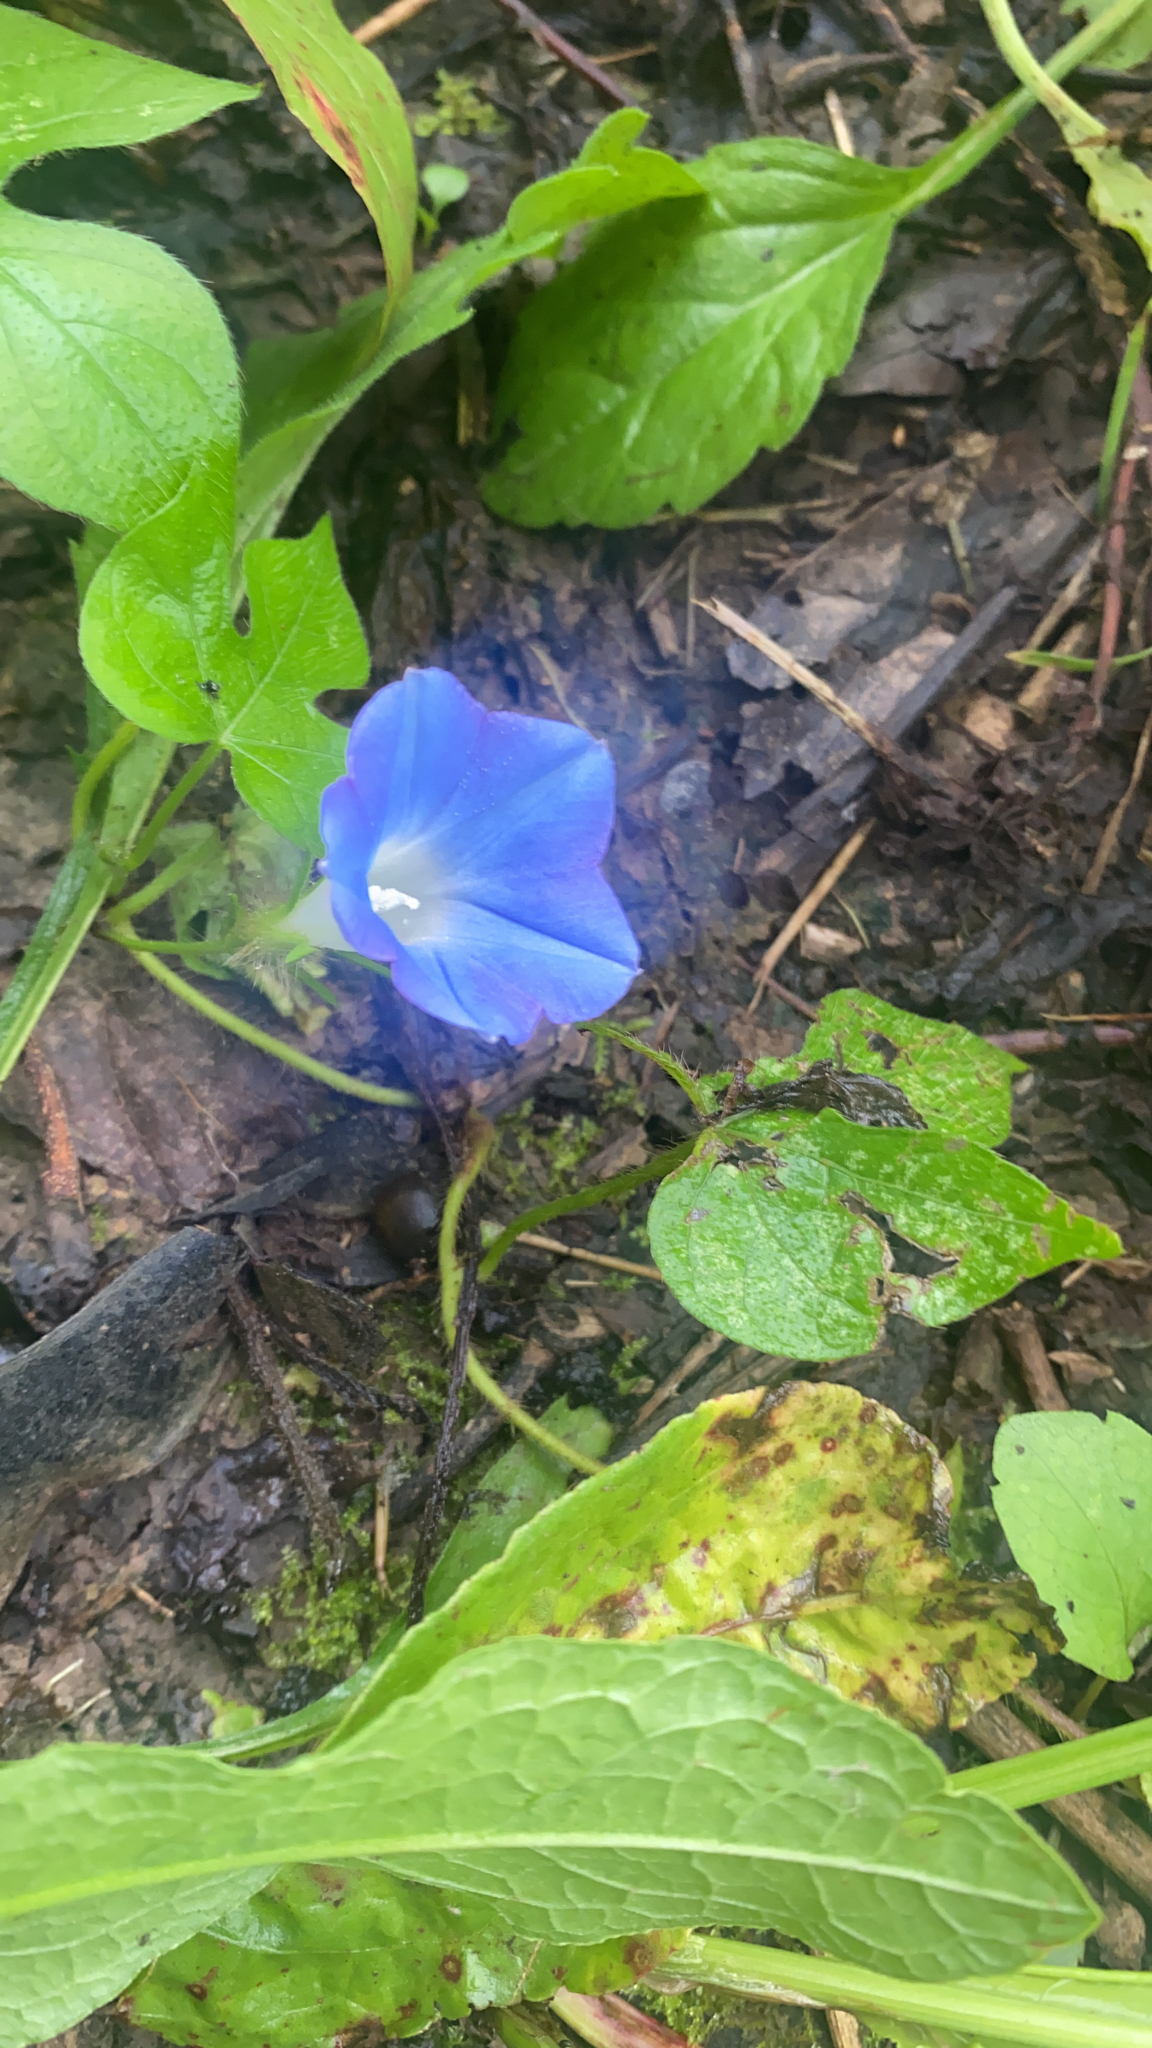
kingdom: Plantae
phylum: Tracheophyta
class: Magnoliopsida
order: Solanales
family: Convolvulaceae
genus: Ipomoea
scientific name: Ipomoea hederacea
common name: Ivy-leaved morning-glory
